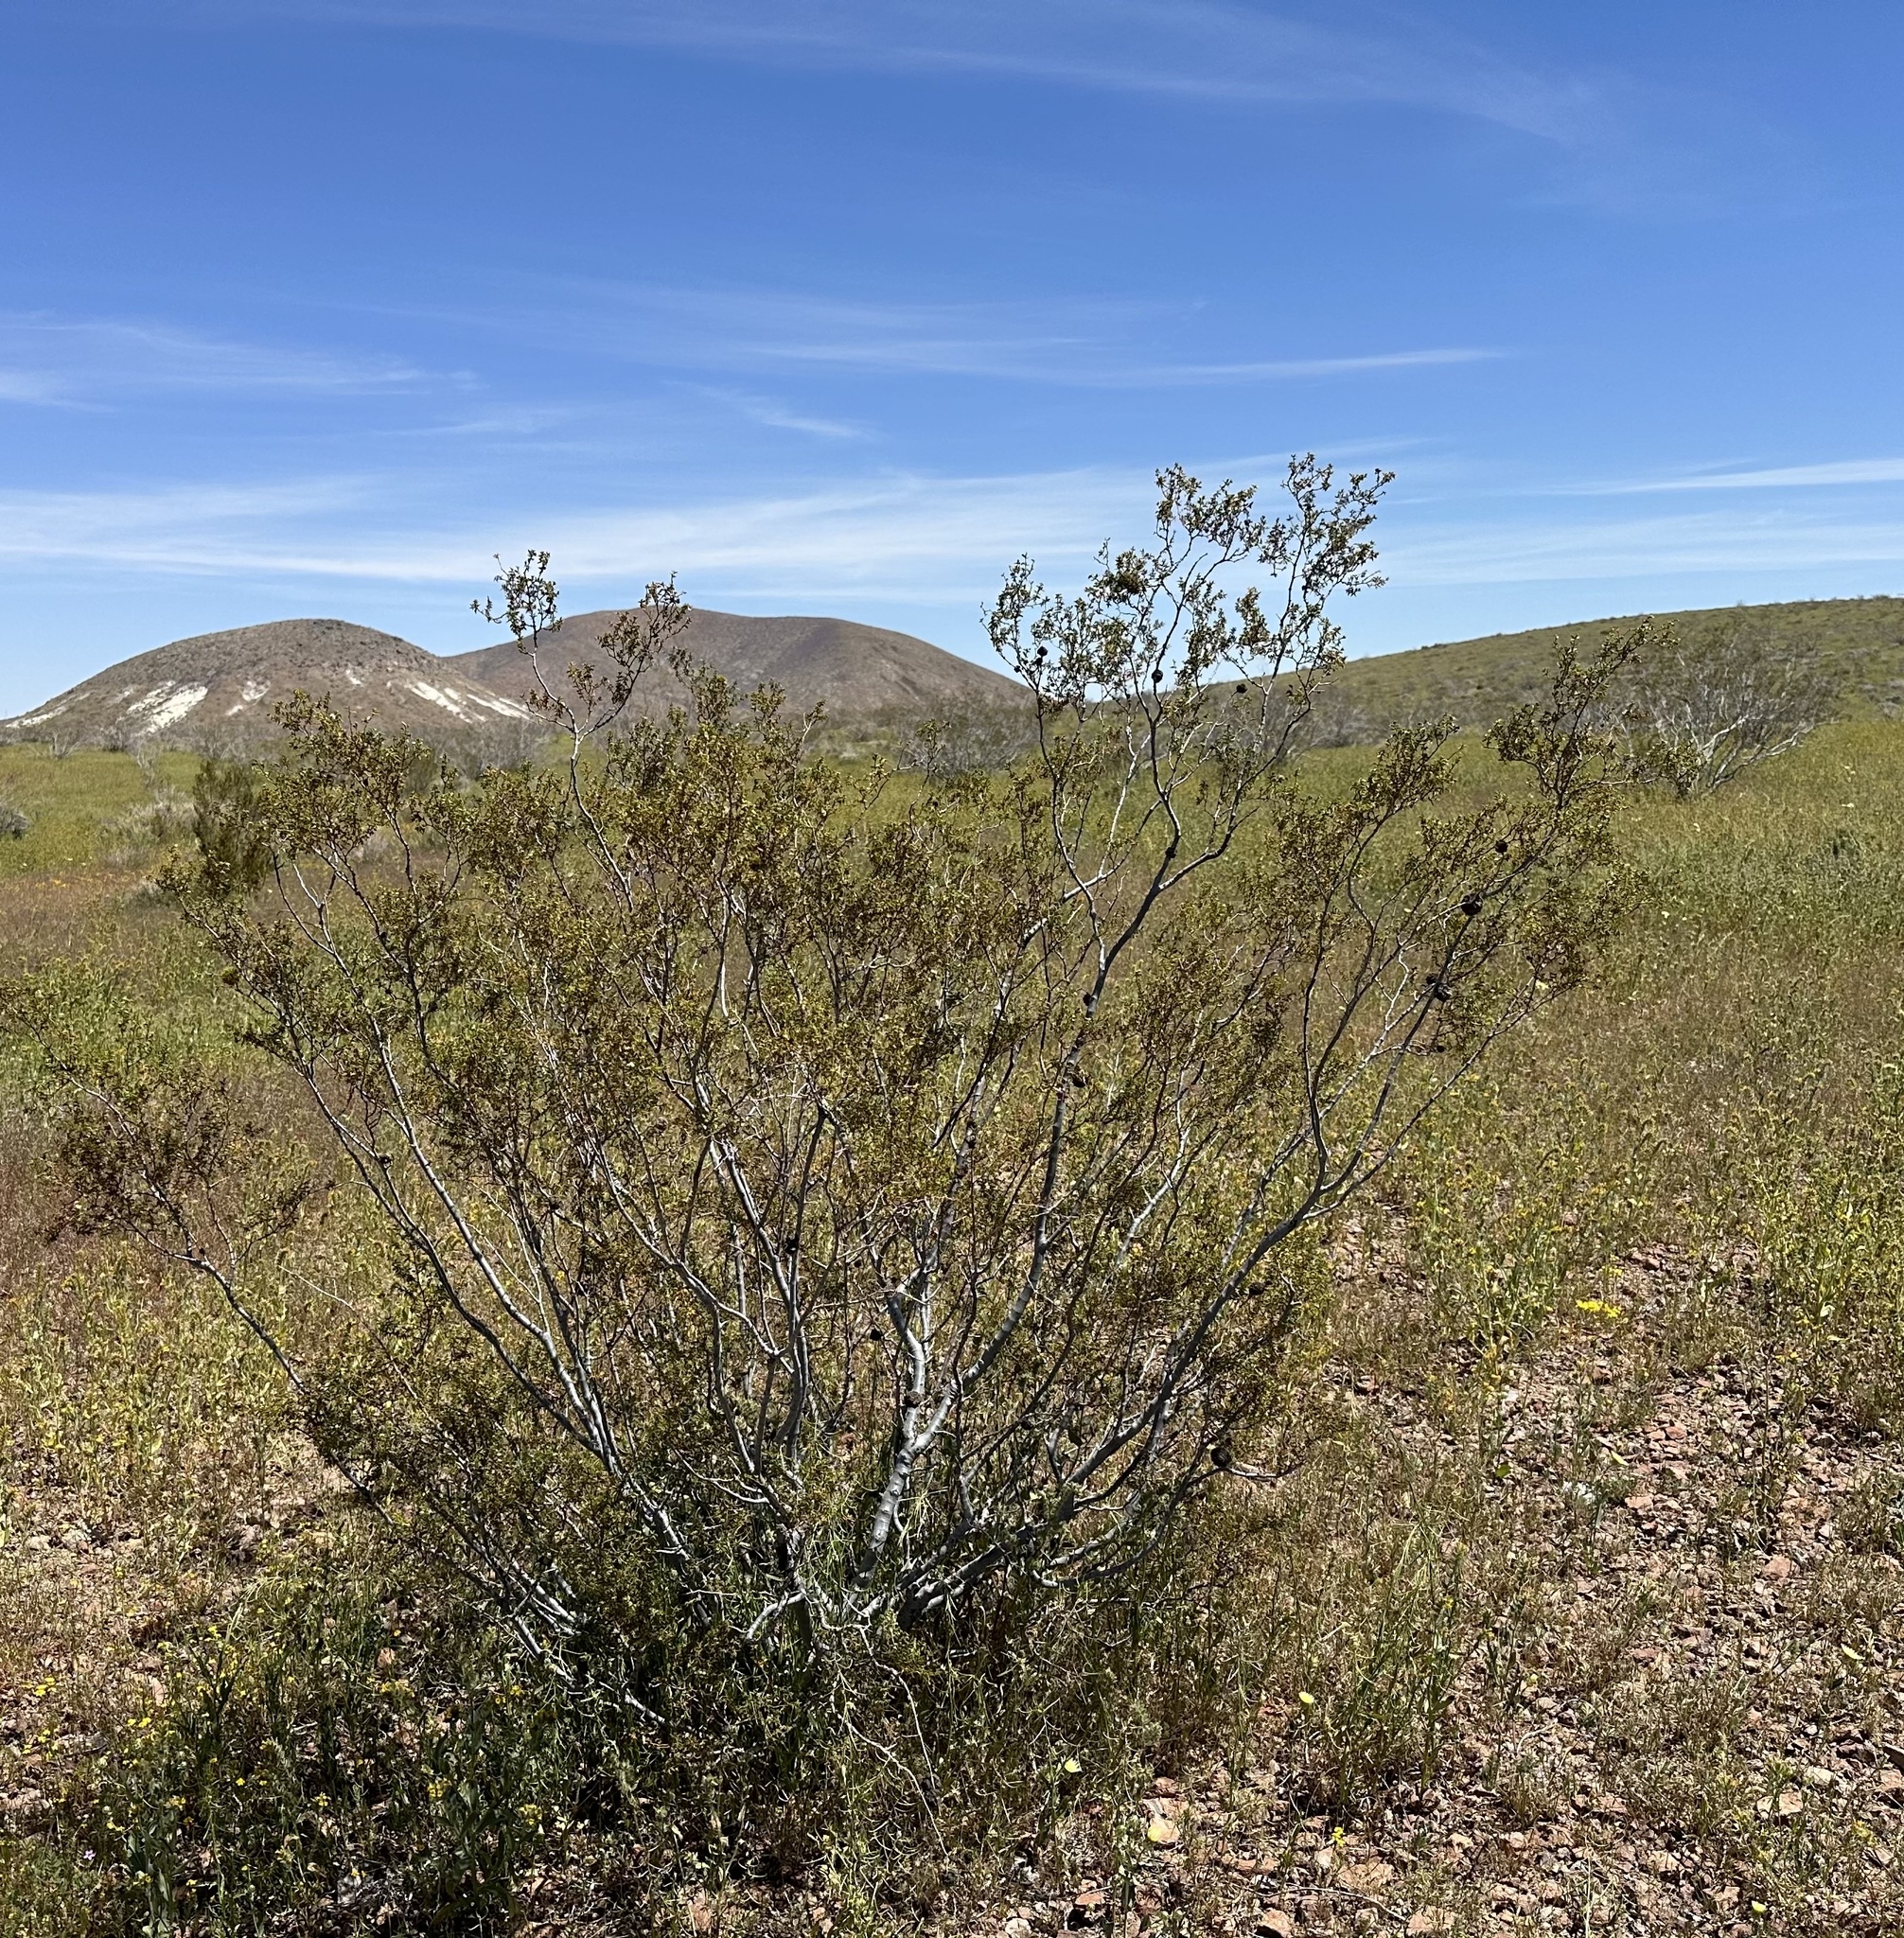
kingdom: Plantae
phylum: Tracheophyta
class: Magnoliopsida
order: Zygophyllales
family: Zygophyllaceae
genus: Larrea
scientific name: Larrea tridentata
